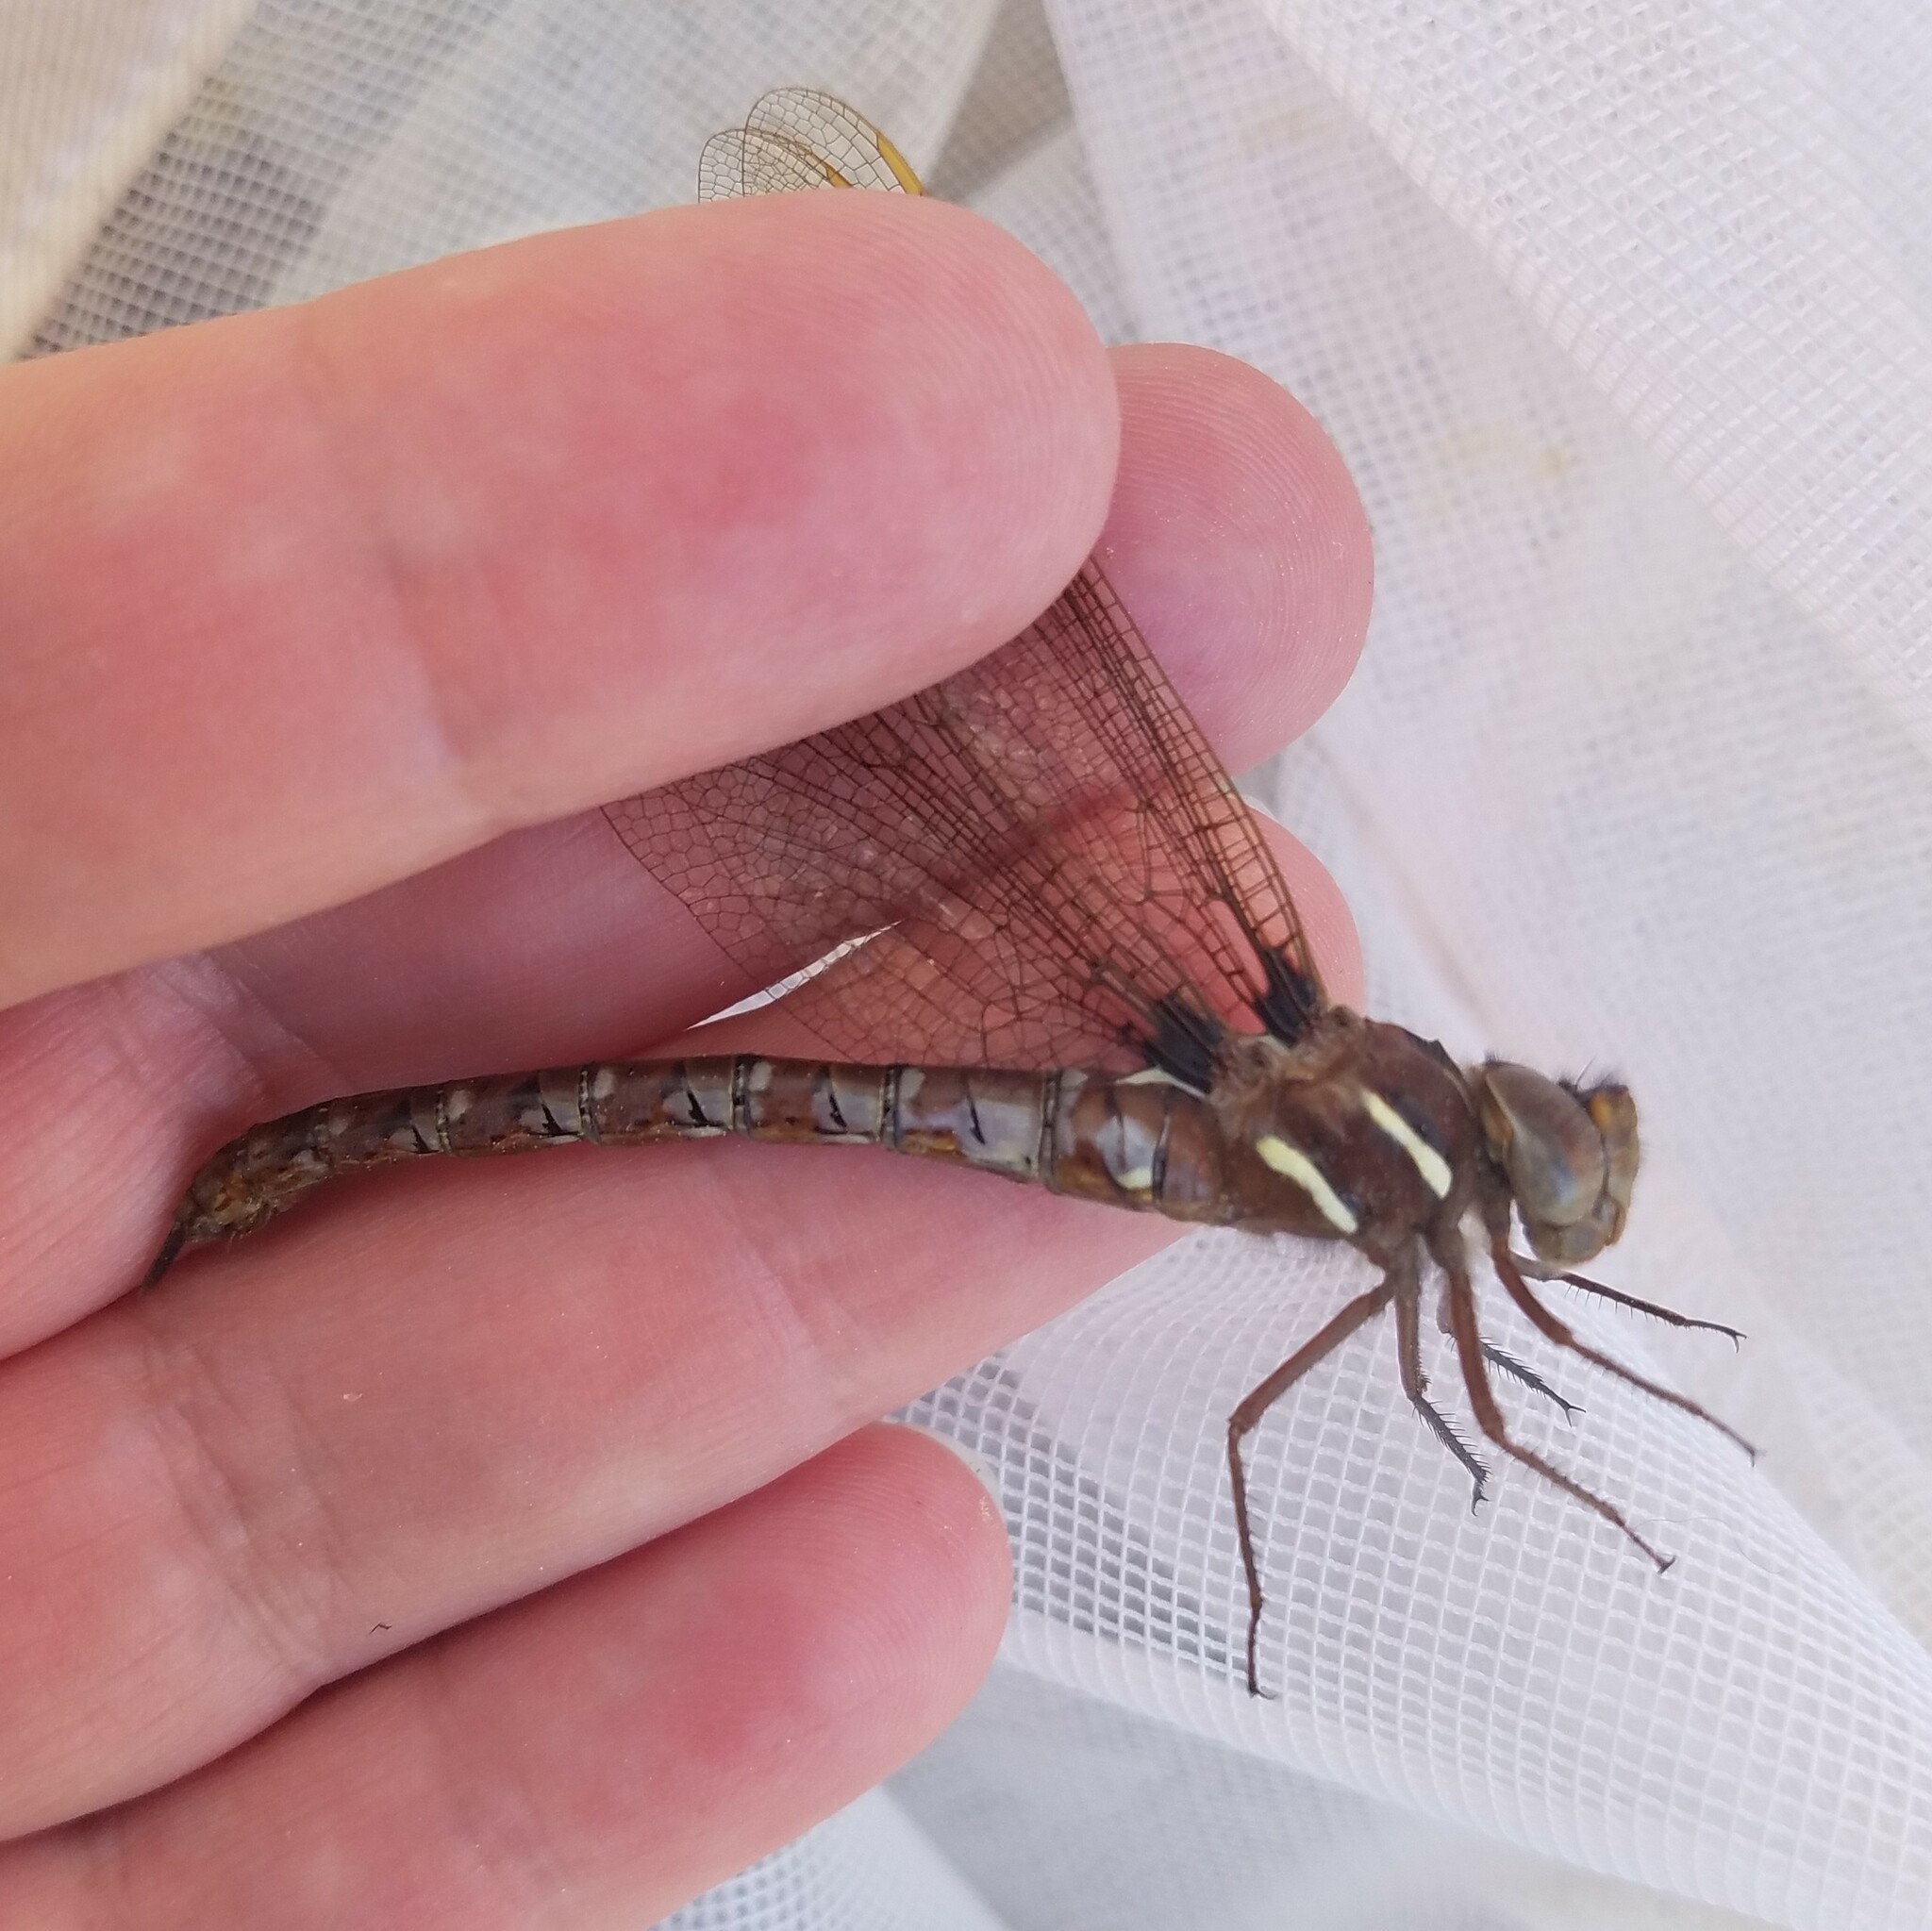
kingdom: Animalia
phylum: Arthropoda
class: Insecta
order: Odonata
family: Aeshnidae
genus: Basiaeschna
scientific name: Basiaeschna janata
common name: Springtime darner
